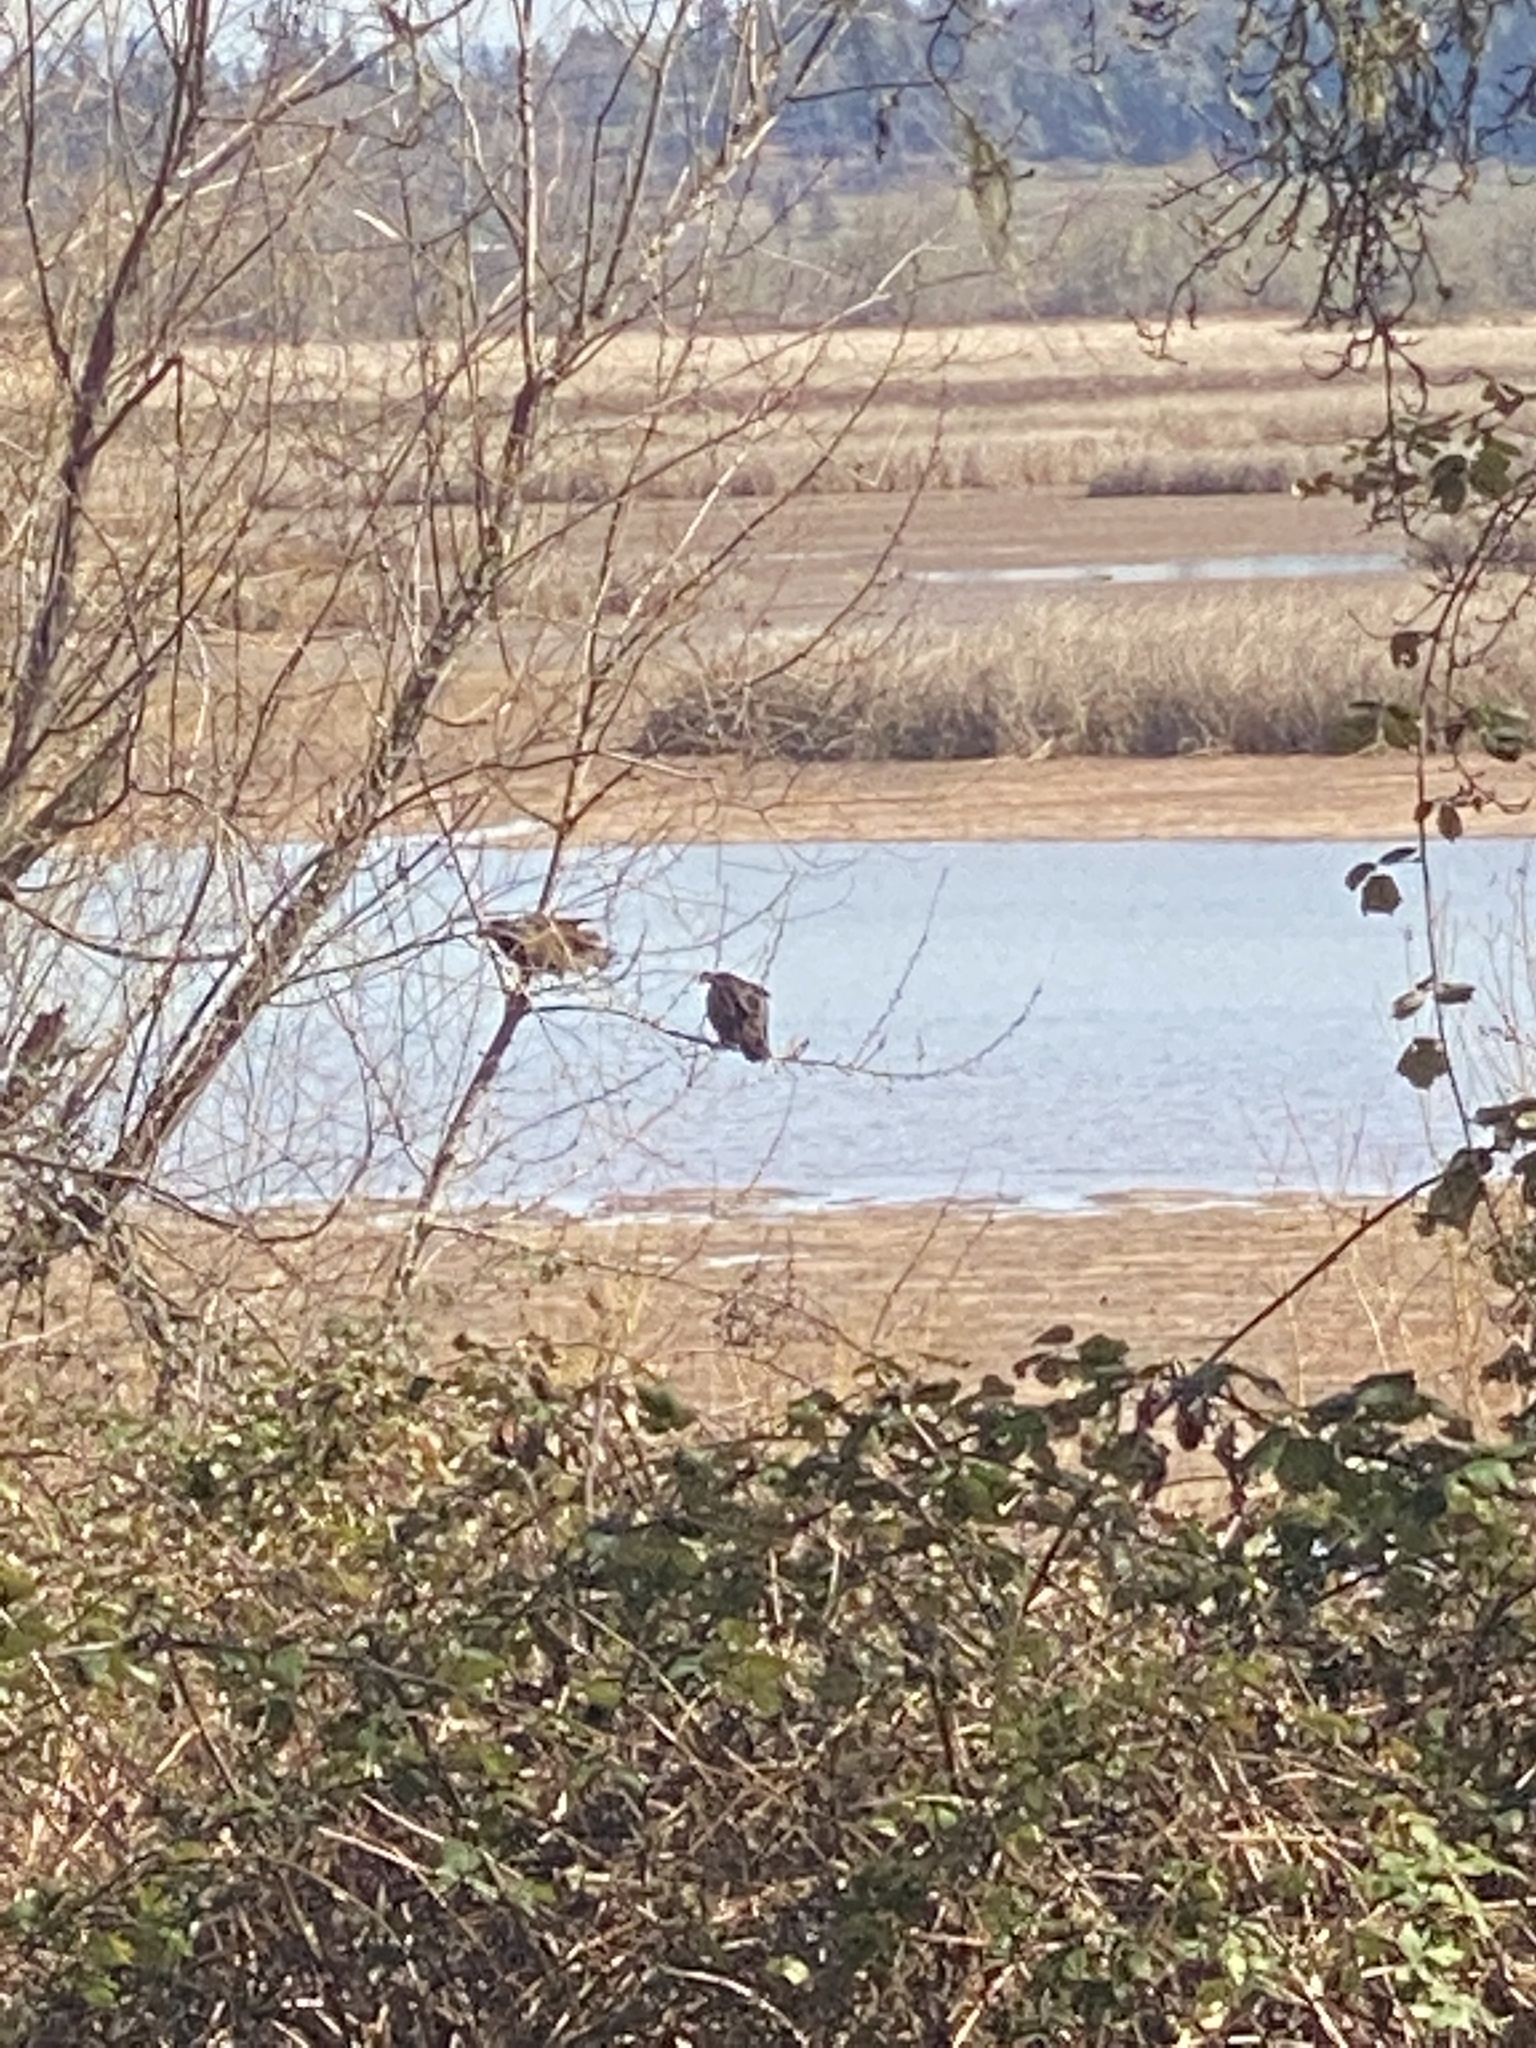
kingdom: Animalia
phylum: Chordata
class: Aves
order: Accipitriformes
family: Cathartidae
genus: Cathartes
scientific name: Cathartes aura
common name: Turkey vulture
